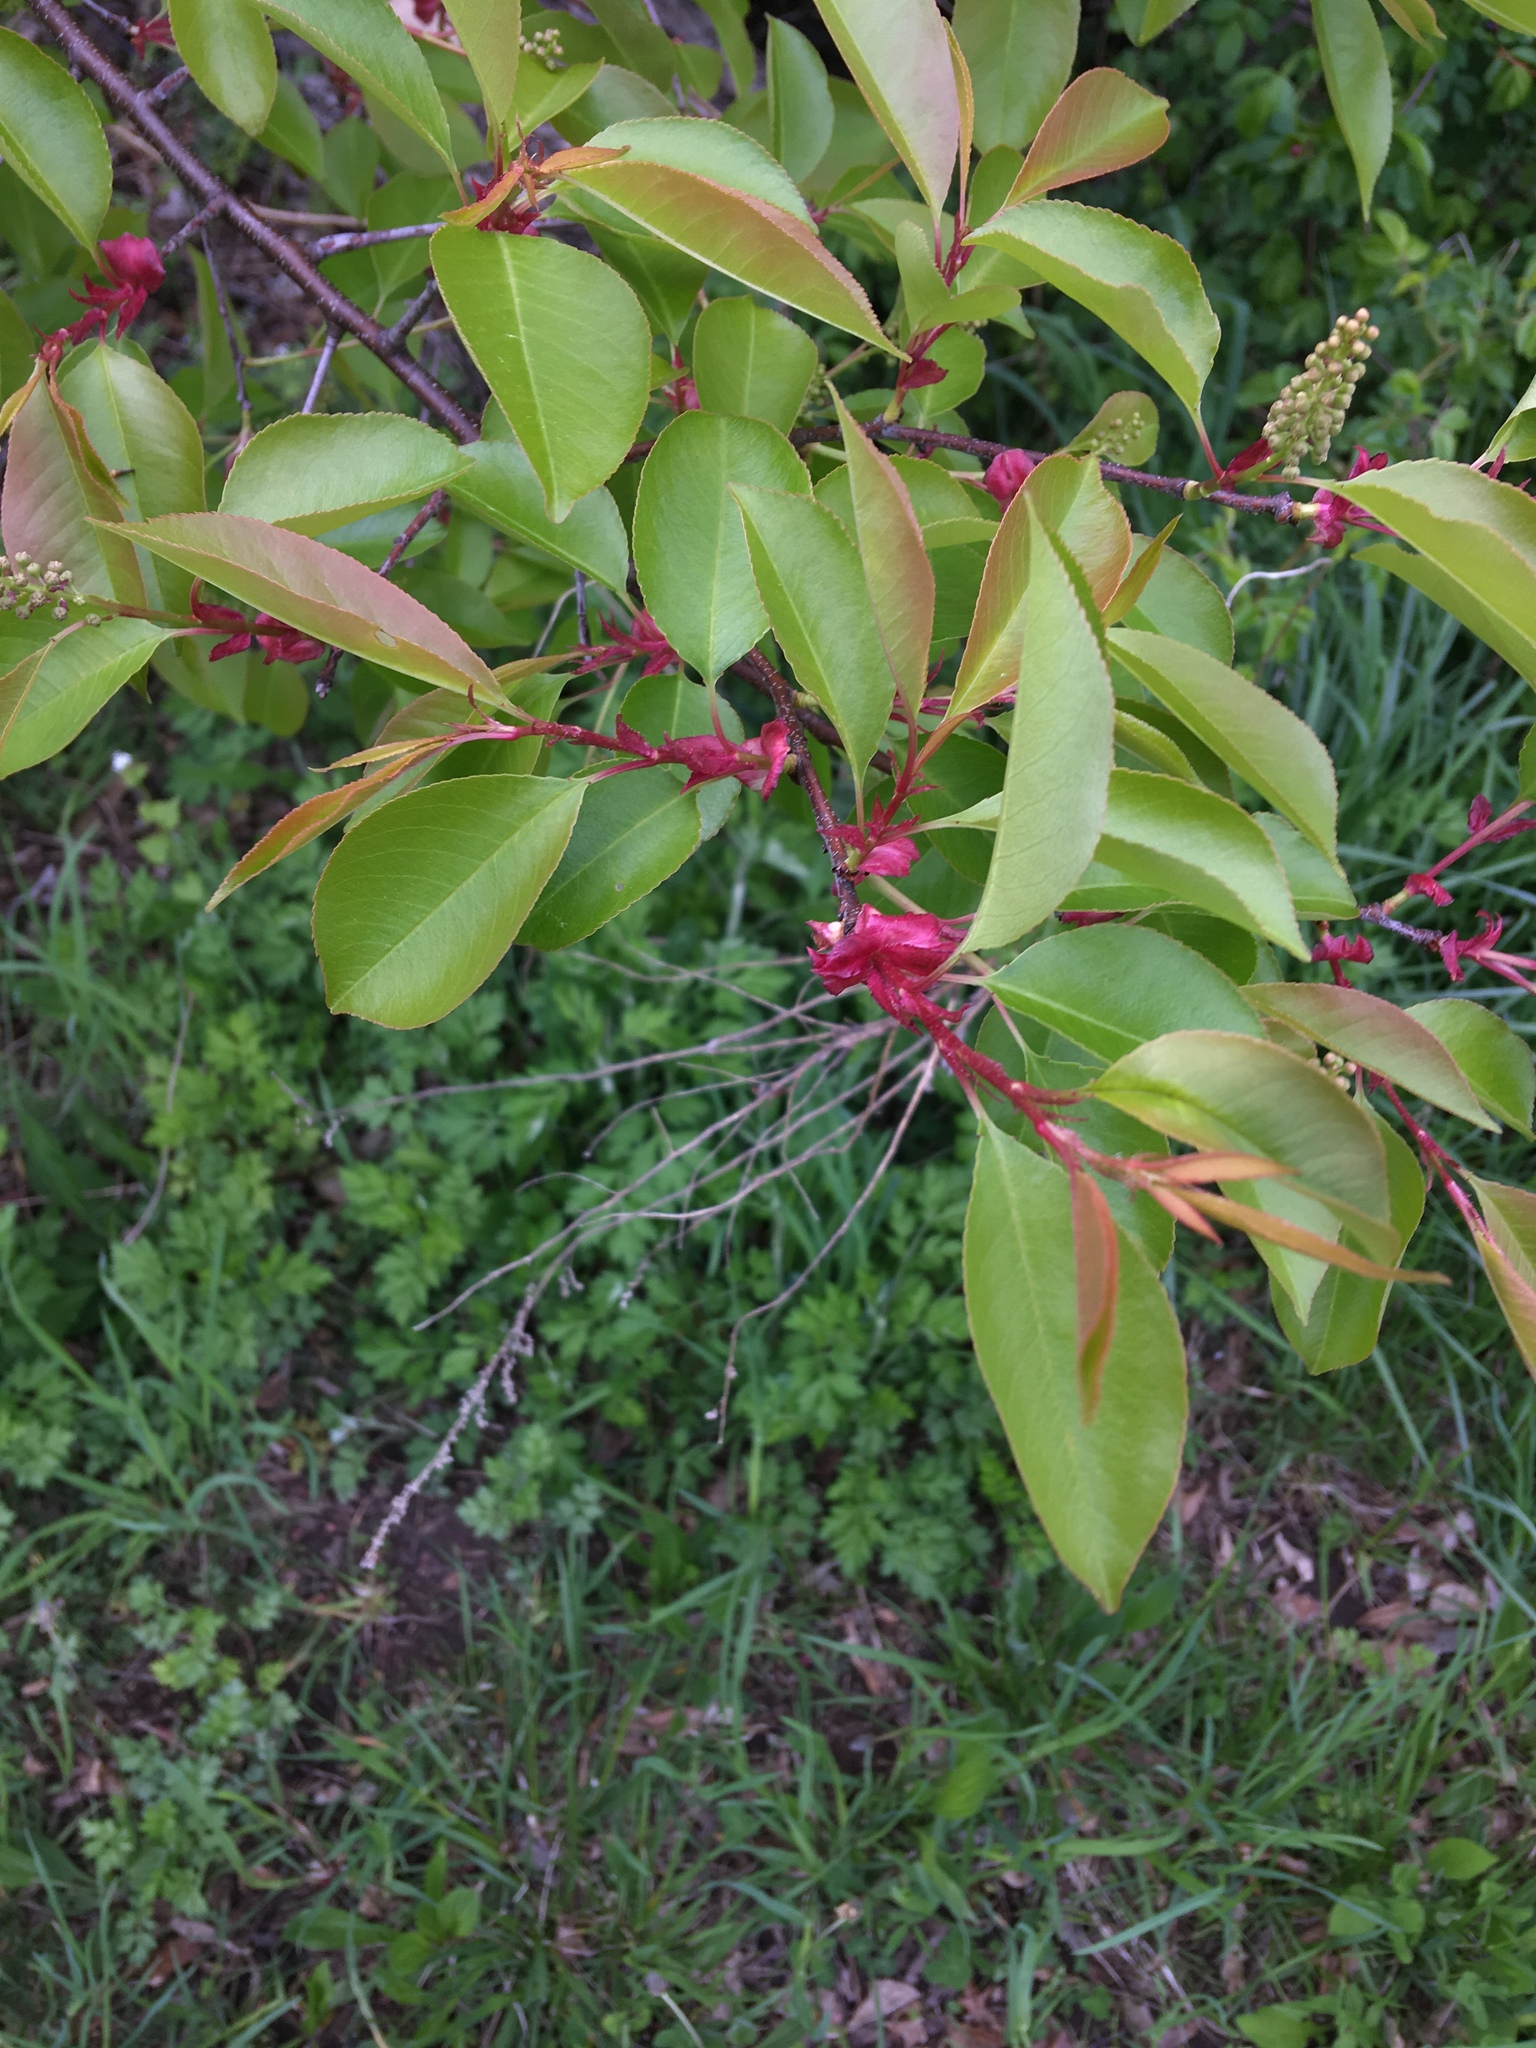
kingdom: Plantae
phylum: Tracheophyta
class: Magnoliopsida
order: Rosales
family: Rosaceae
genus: Prunus
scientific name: Prunus serotina
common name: Black cherry
